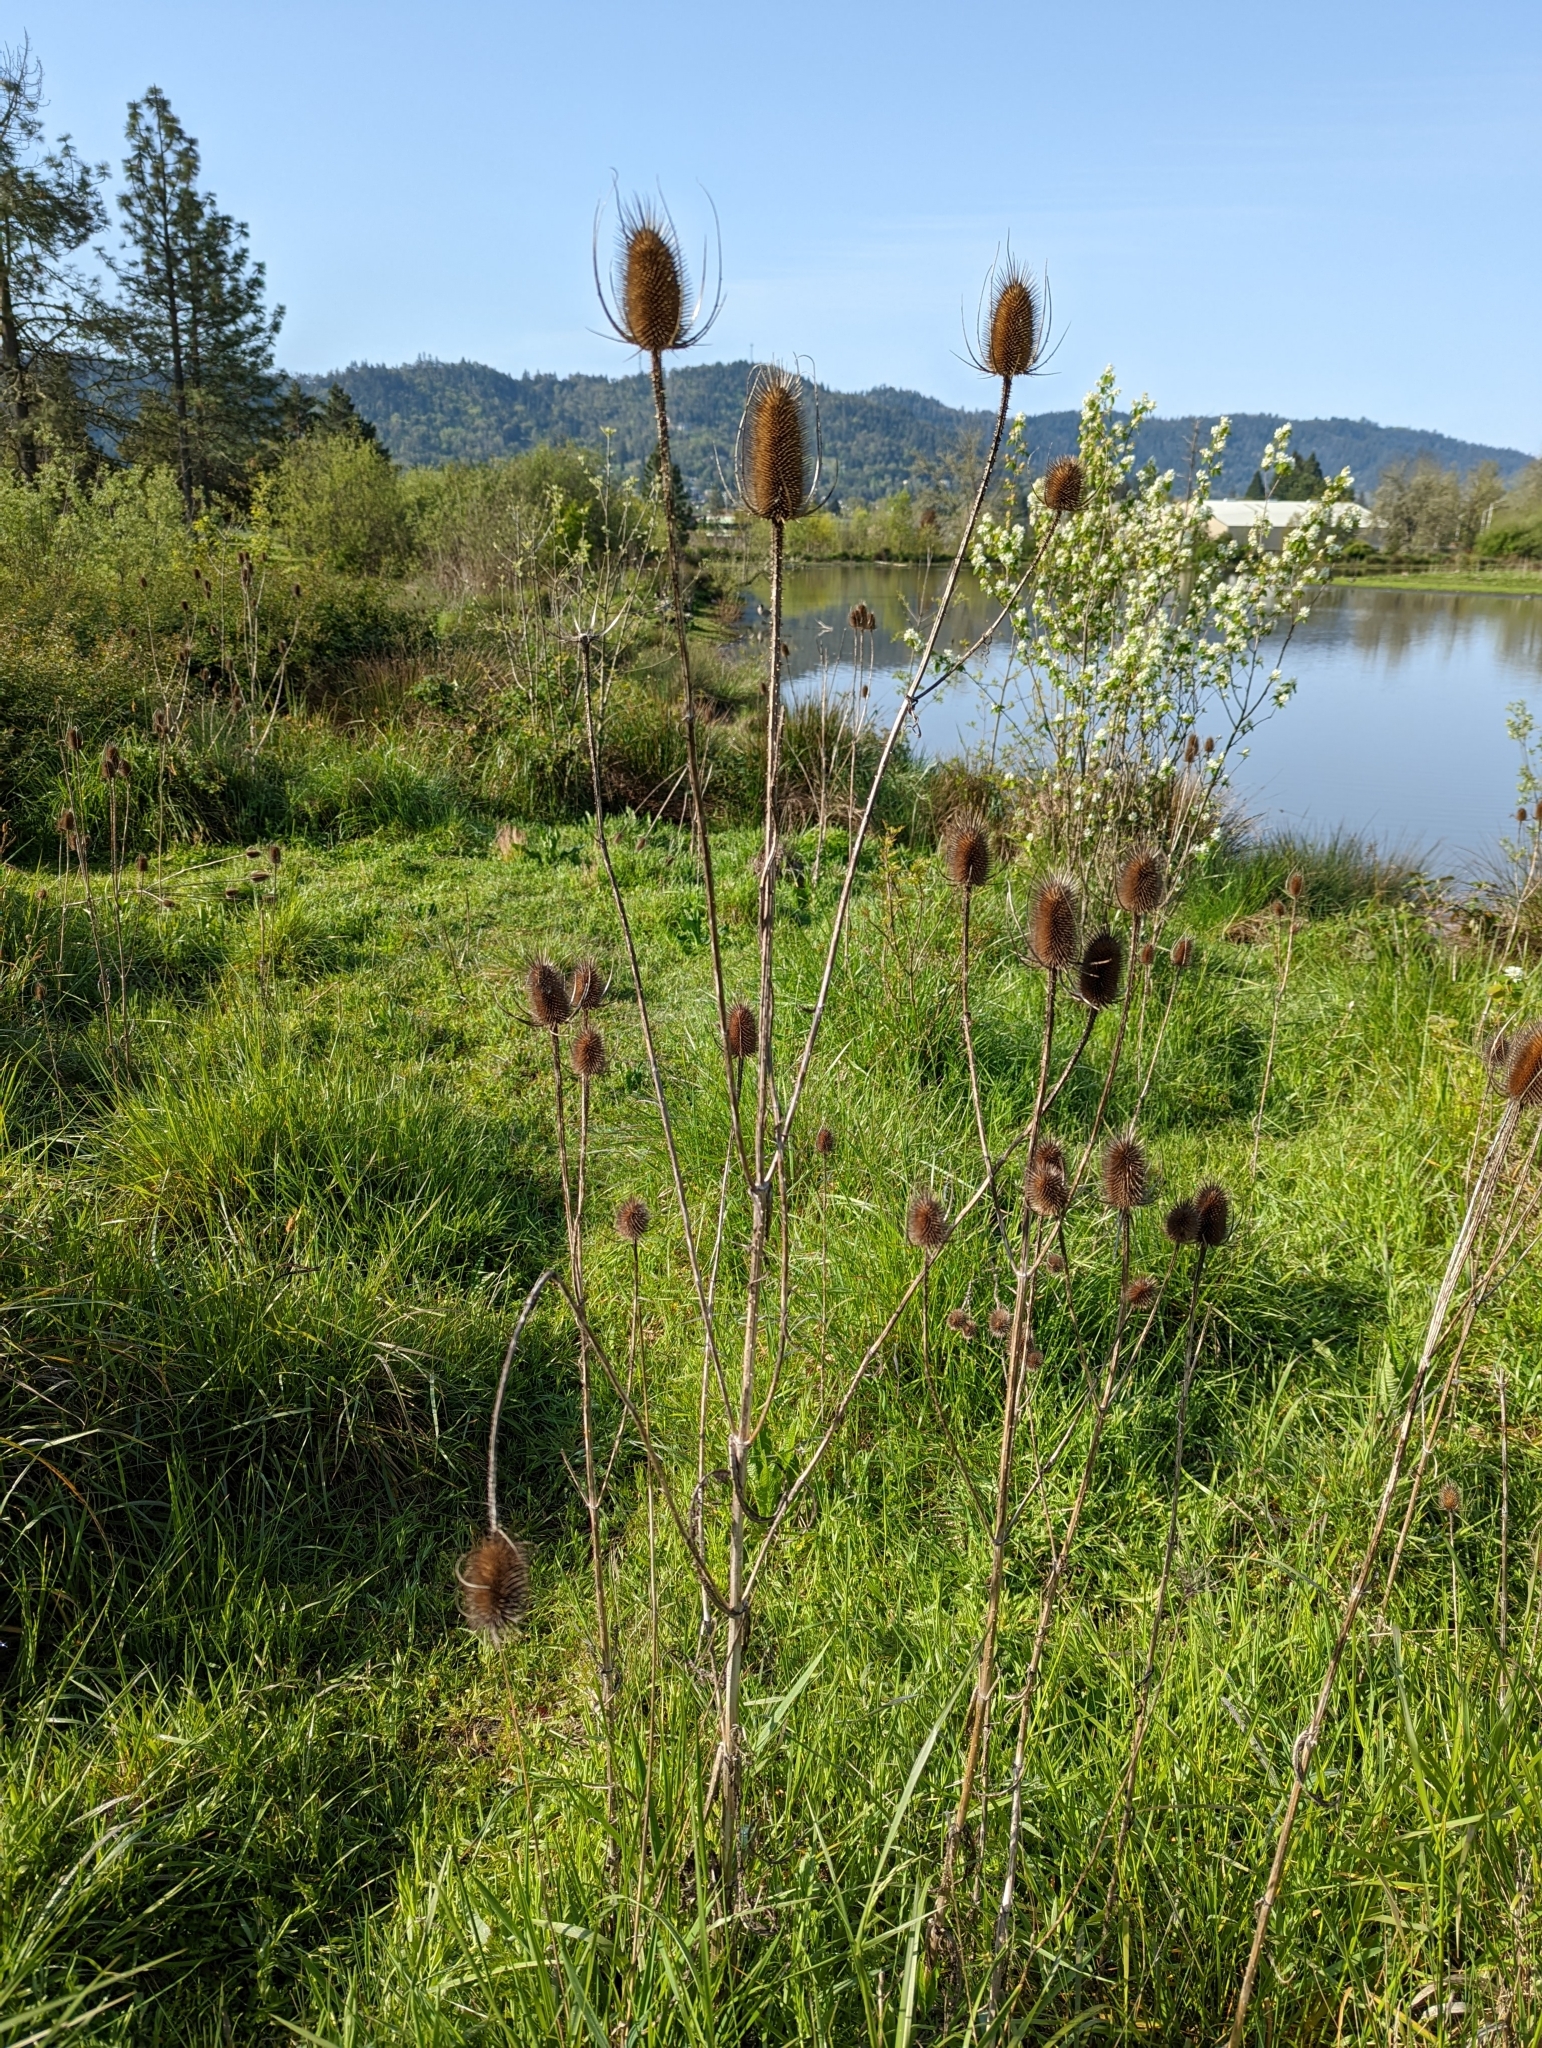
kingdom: Plantae
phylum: Tracheophyta
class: Magnoliopsida
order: Dipsacales
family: Caprifoliaceae
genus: Dipsacus
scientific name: Dipsacus fullonum
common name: Teasel
